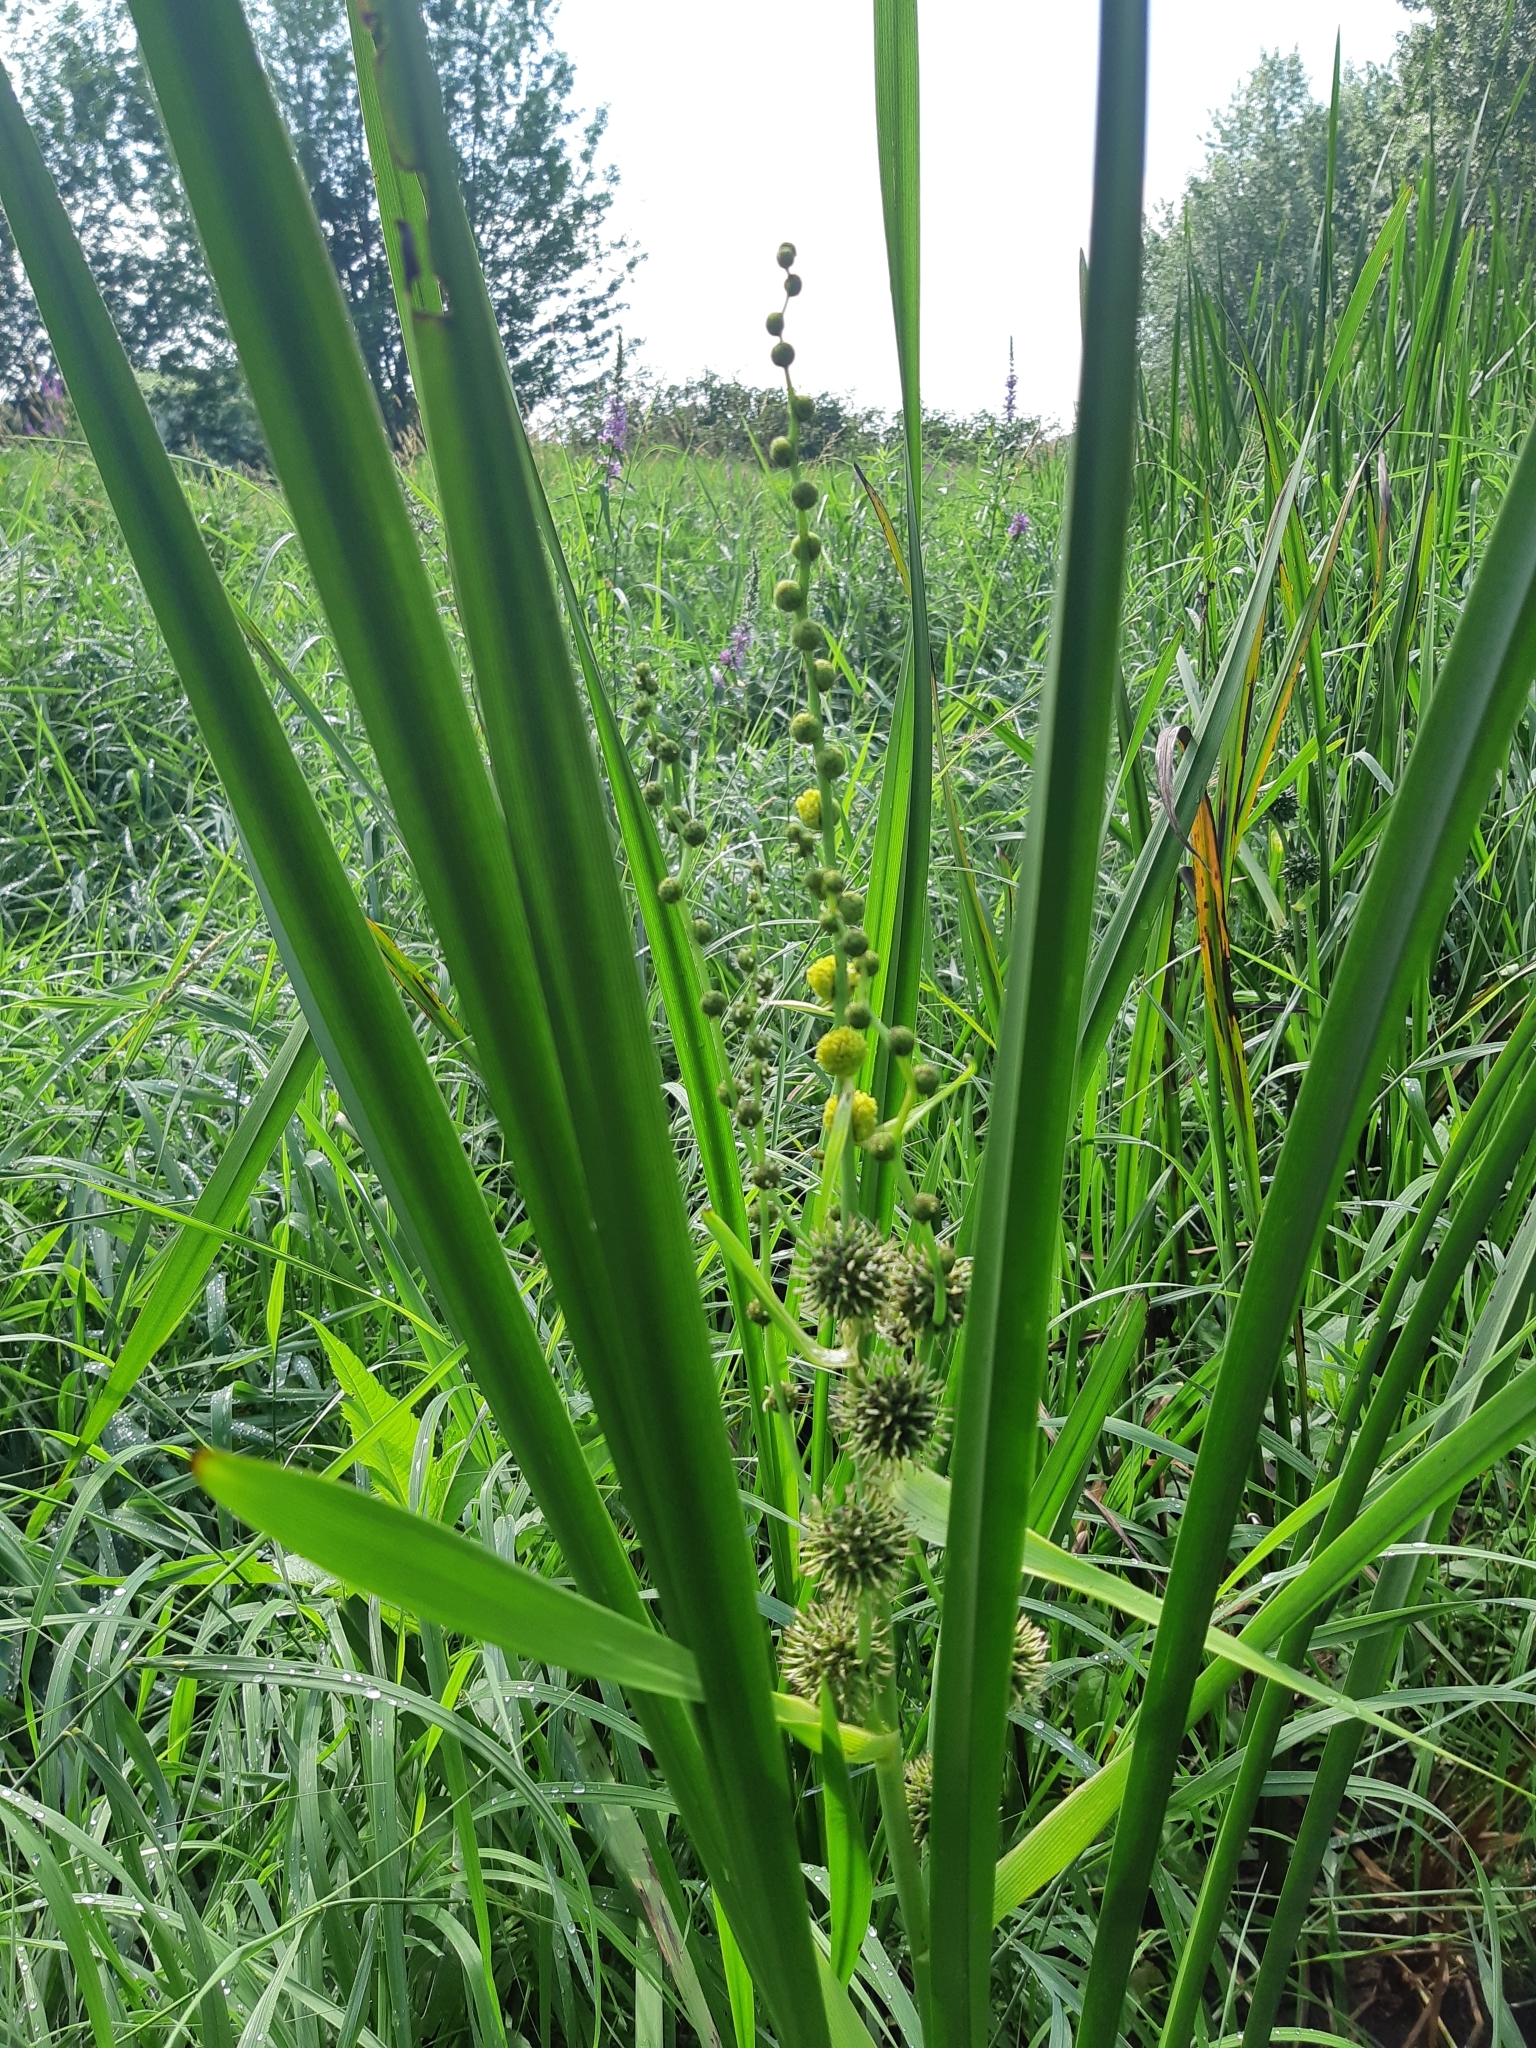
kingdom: Plantae
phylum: Tracheophyta
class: Liliopsida
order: Poales
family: Typhaceae
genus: Sparganium
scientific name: Sparganium eurycarpum
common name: Broad-fruited burreed
